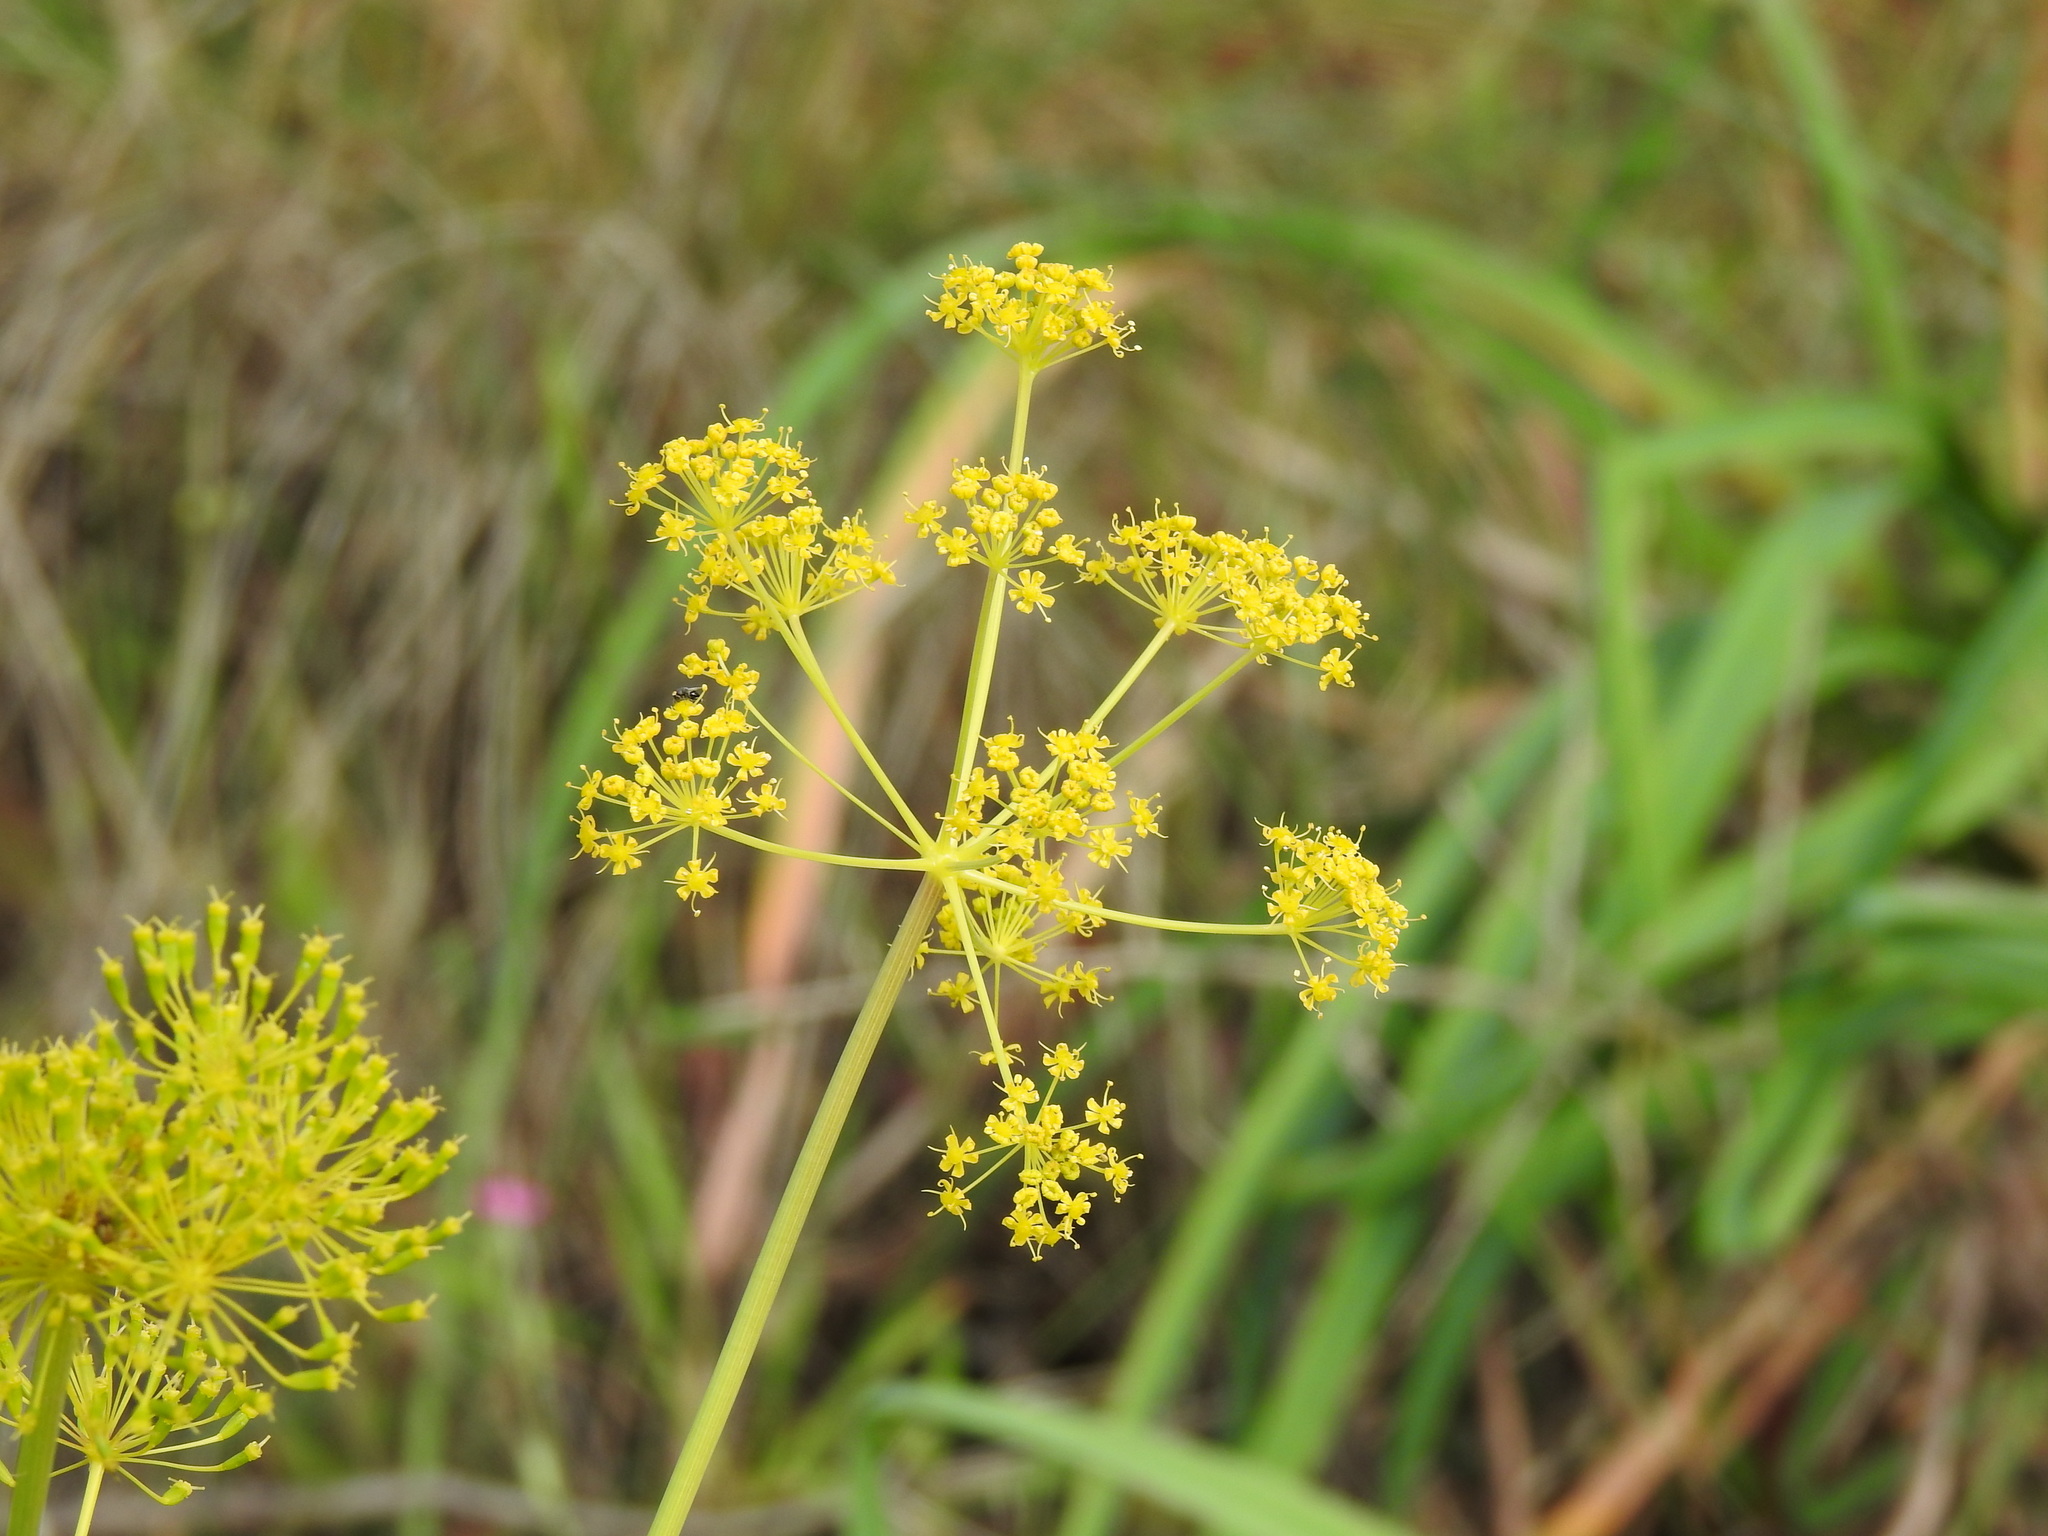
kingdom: Plantae
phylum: Tracheophyta
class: Magnoliopsida
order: Apiales
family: Apiaceae
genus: Thapsia
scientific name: Thapsia villosa
